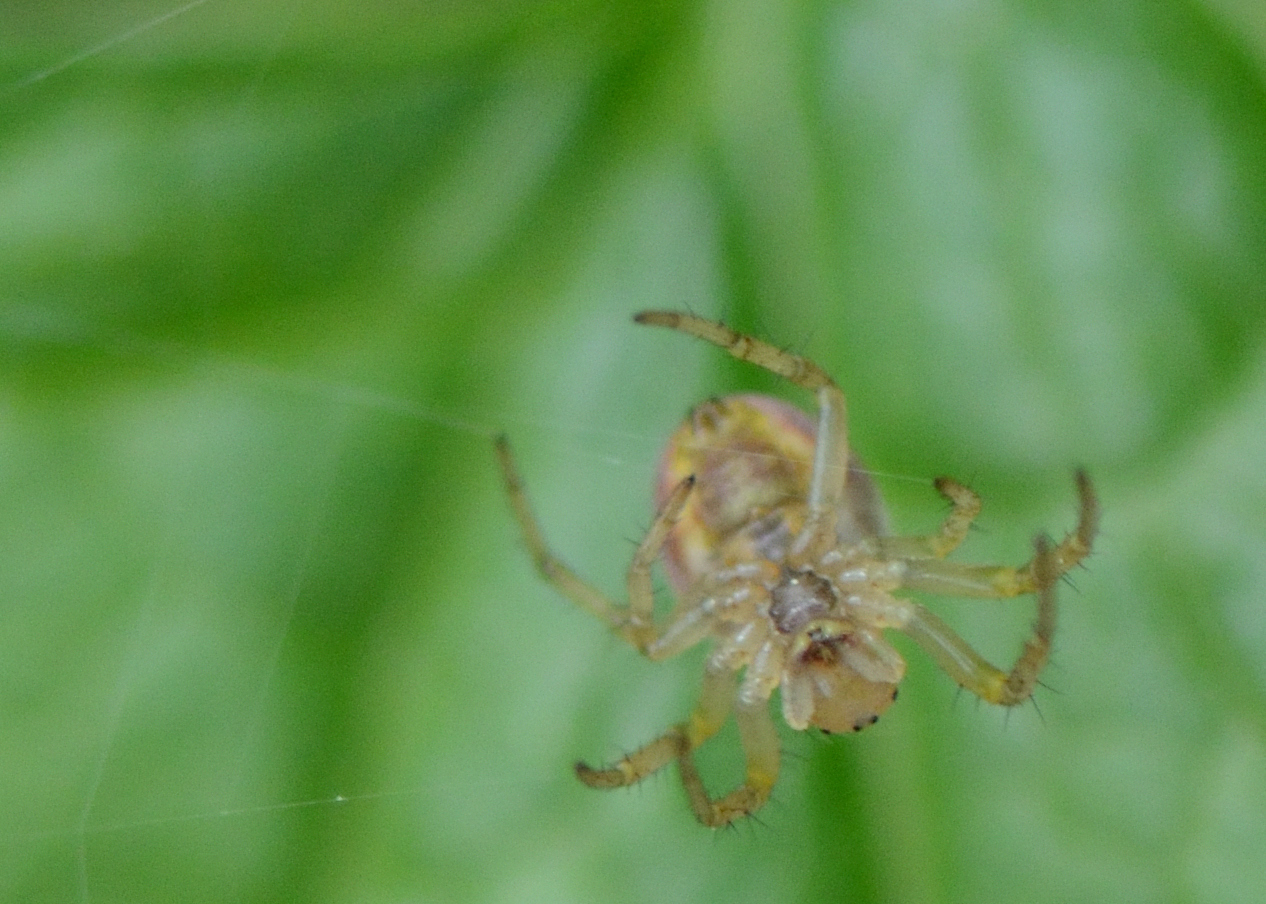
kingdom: Animalia
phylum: Arthropoda
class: Arachnida
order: Araneae
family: Araneidae
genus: Araniella
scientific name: Araniella displicata
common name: Sixspotted orb weaver
